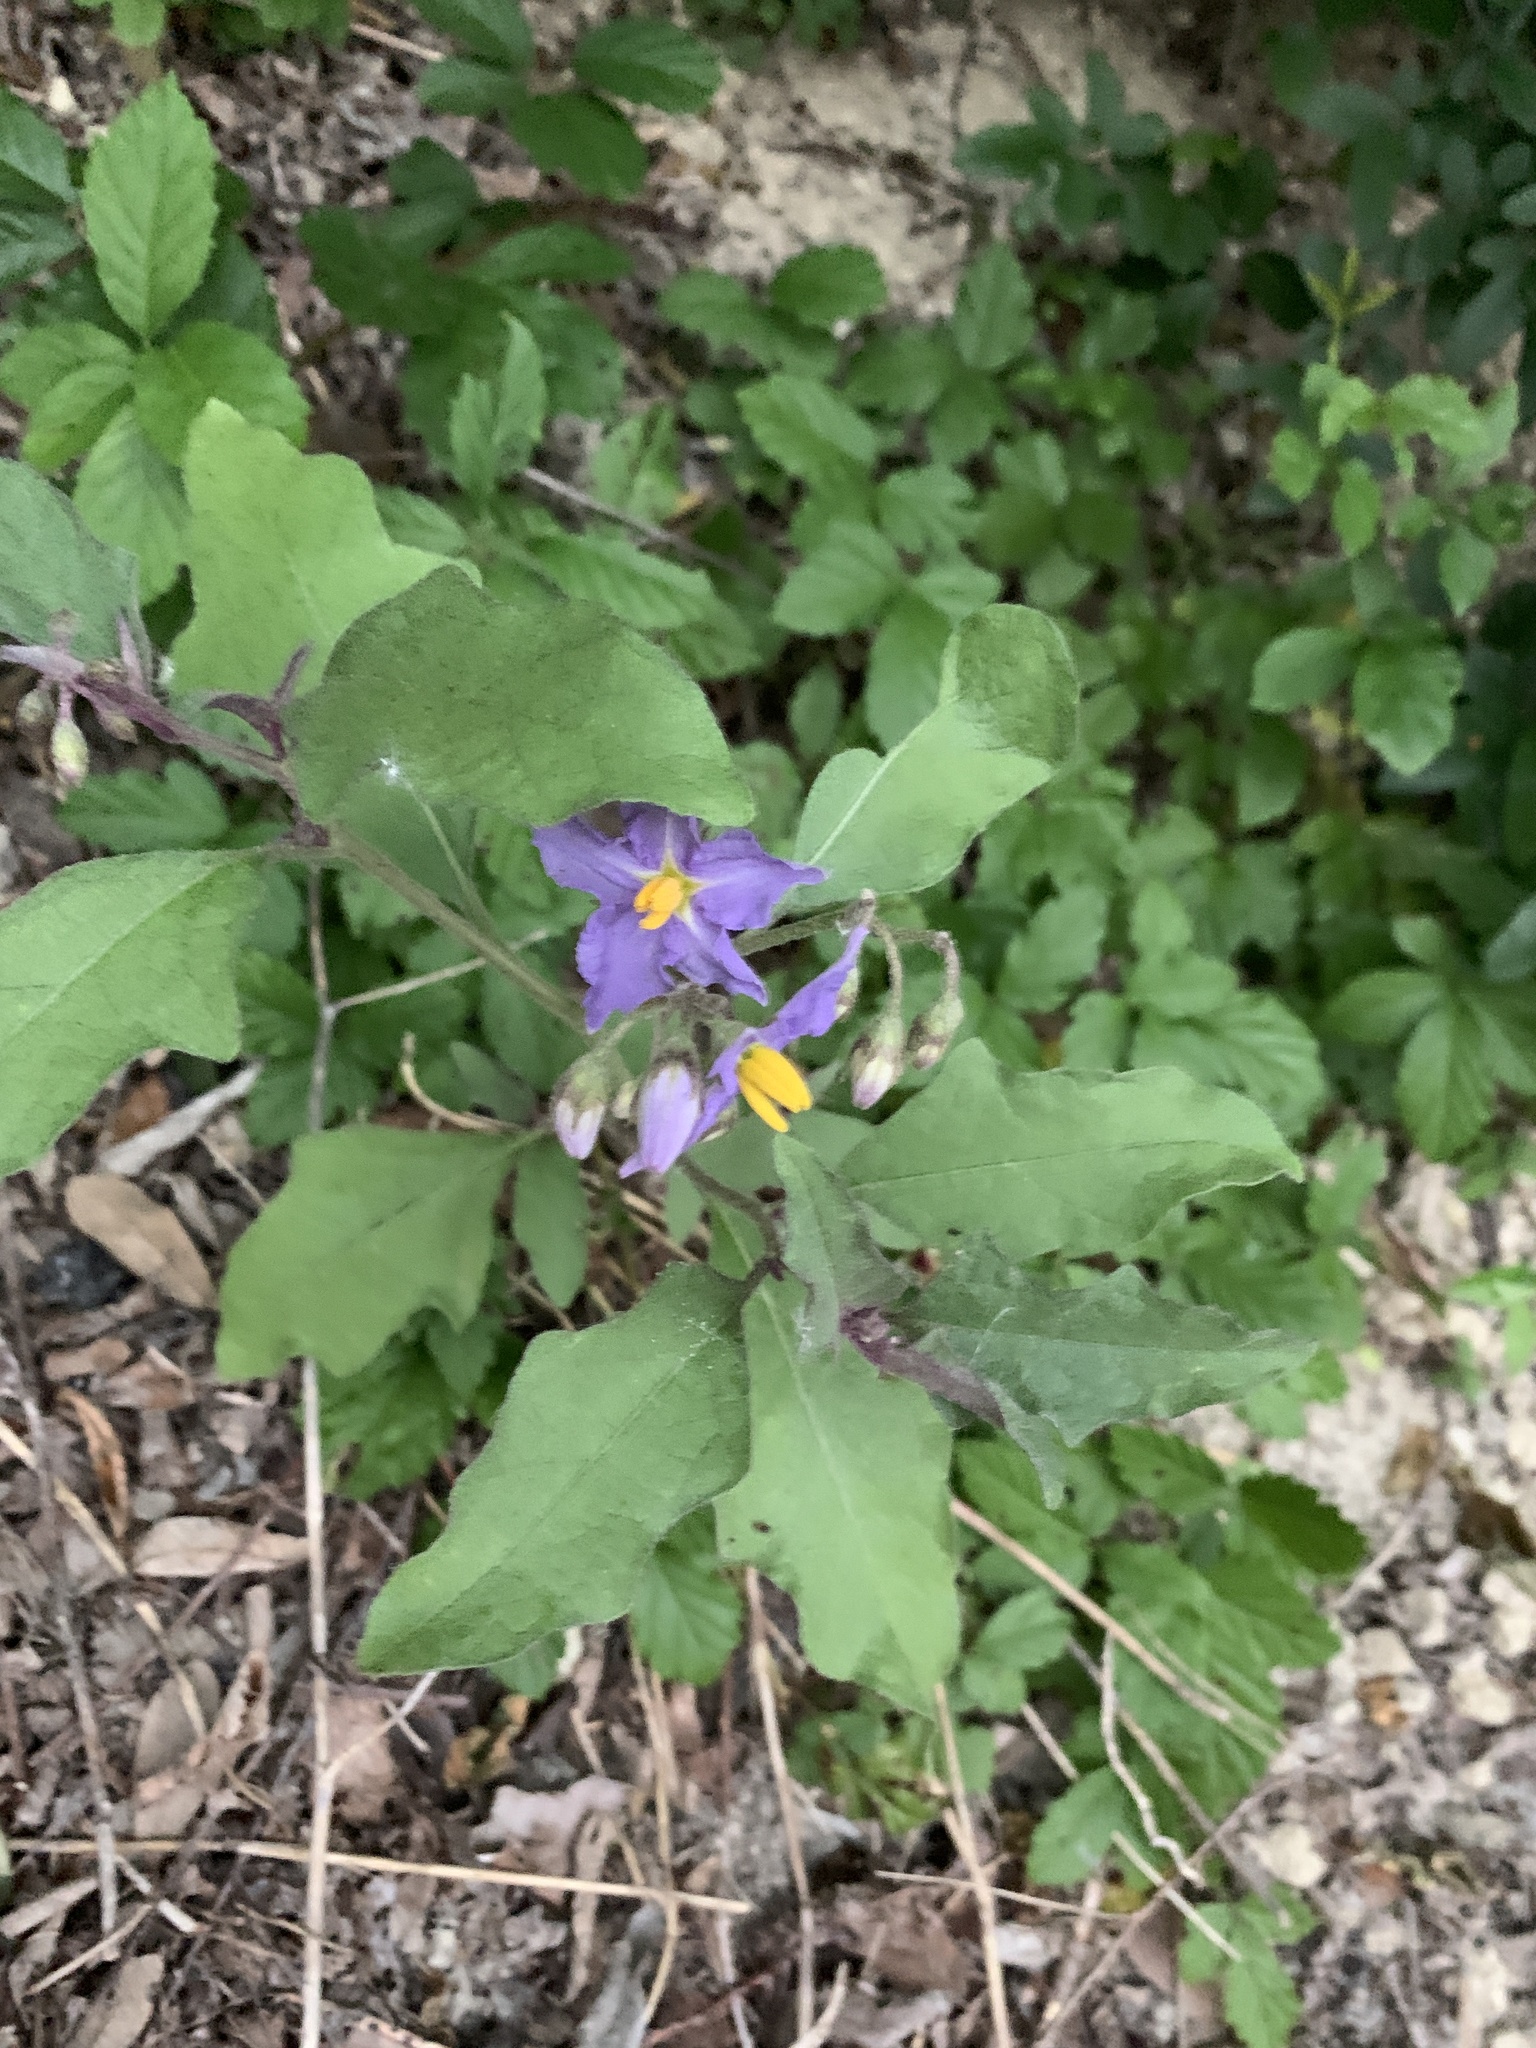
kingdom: Plantae
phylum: Tracheophyta
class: Magnoliopsida
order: Solanales
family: Solanaceae
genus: Solanum
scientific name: Solanum dimidiatum
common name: Carolina horse-nettle
